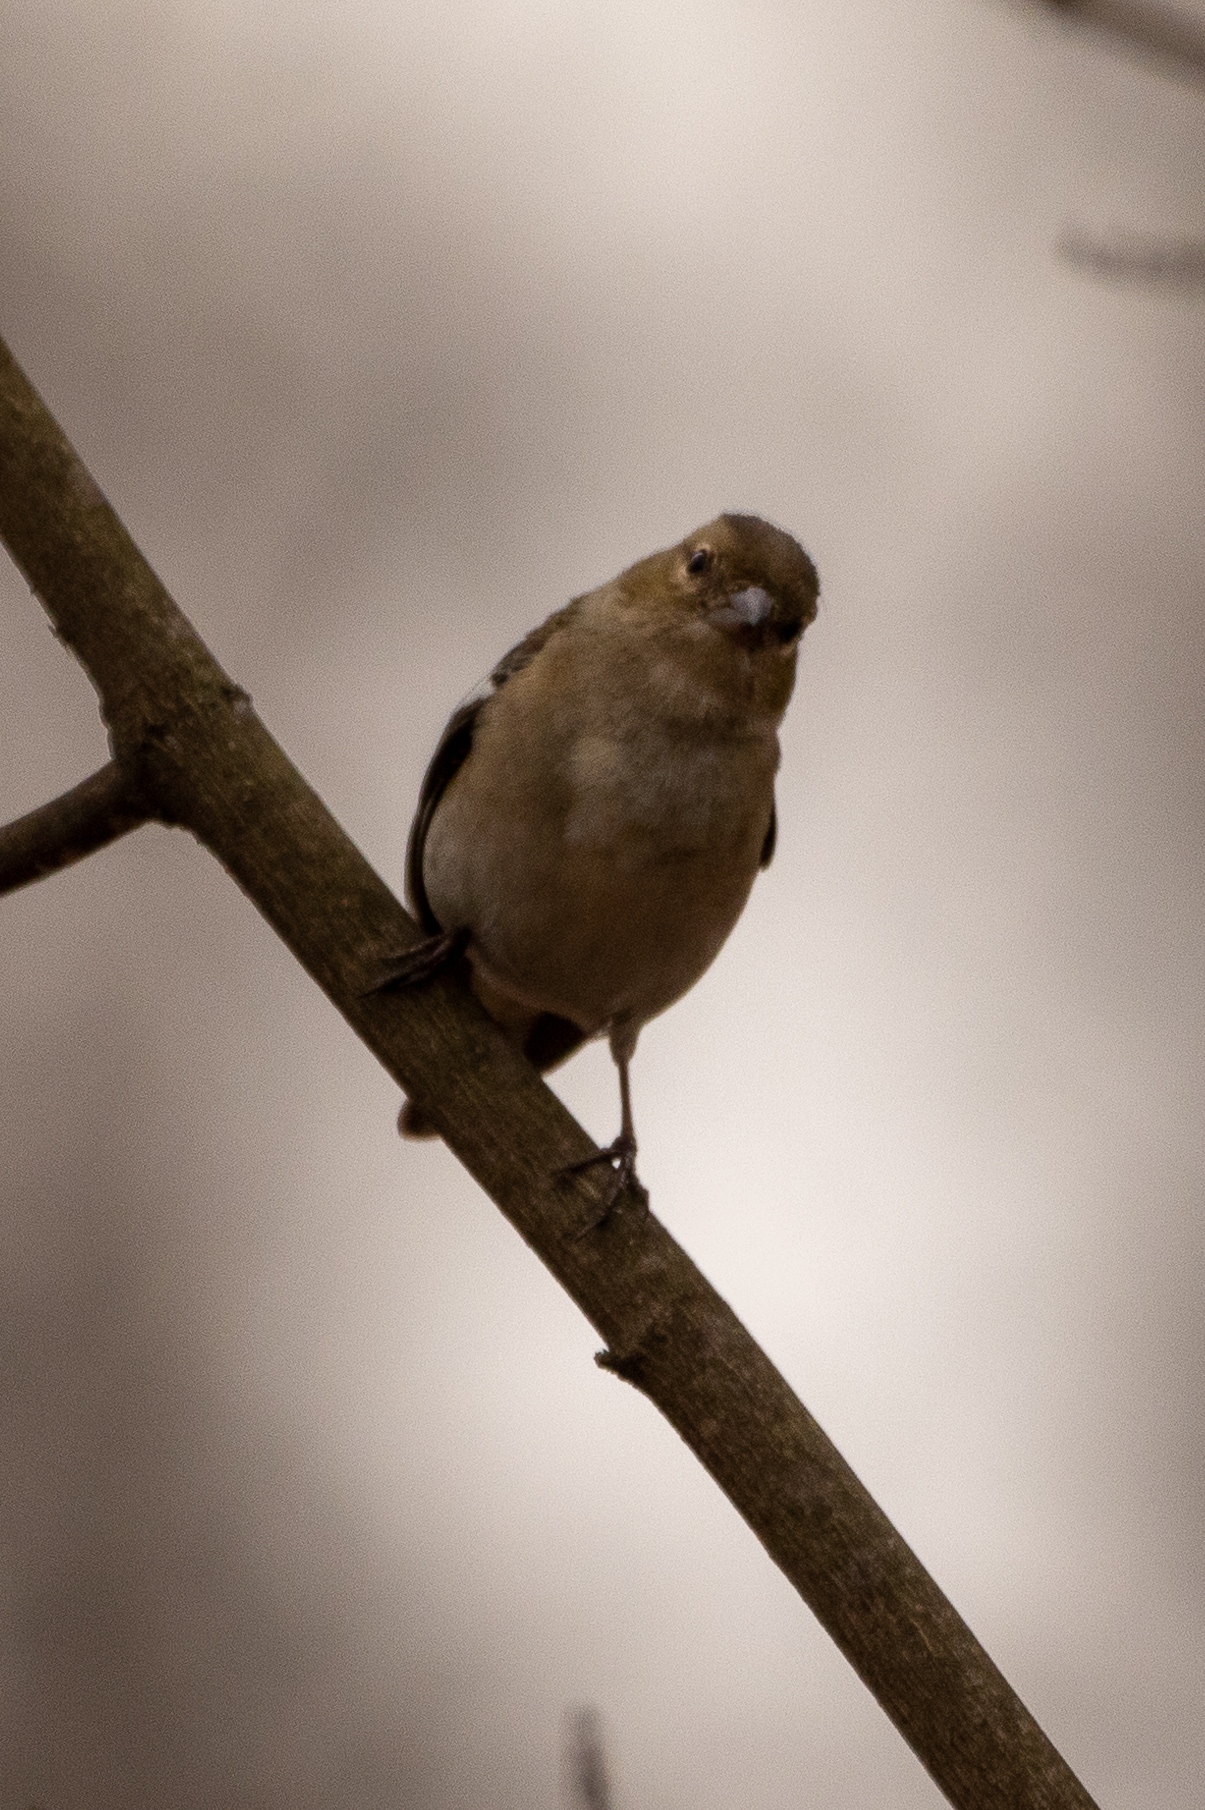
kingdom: Animalia
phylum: Chordata
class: Aves
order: Passeriformes
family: Fringillidae
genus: Fringilla
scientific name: Fringilla coelebs
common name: Common chaffinch
